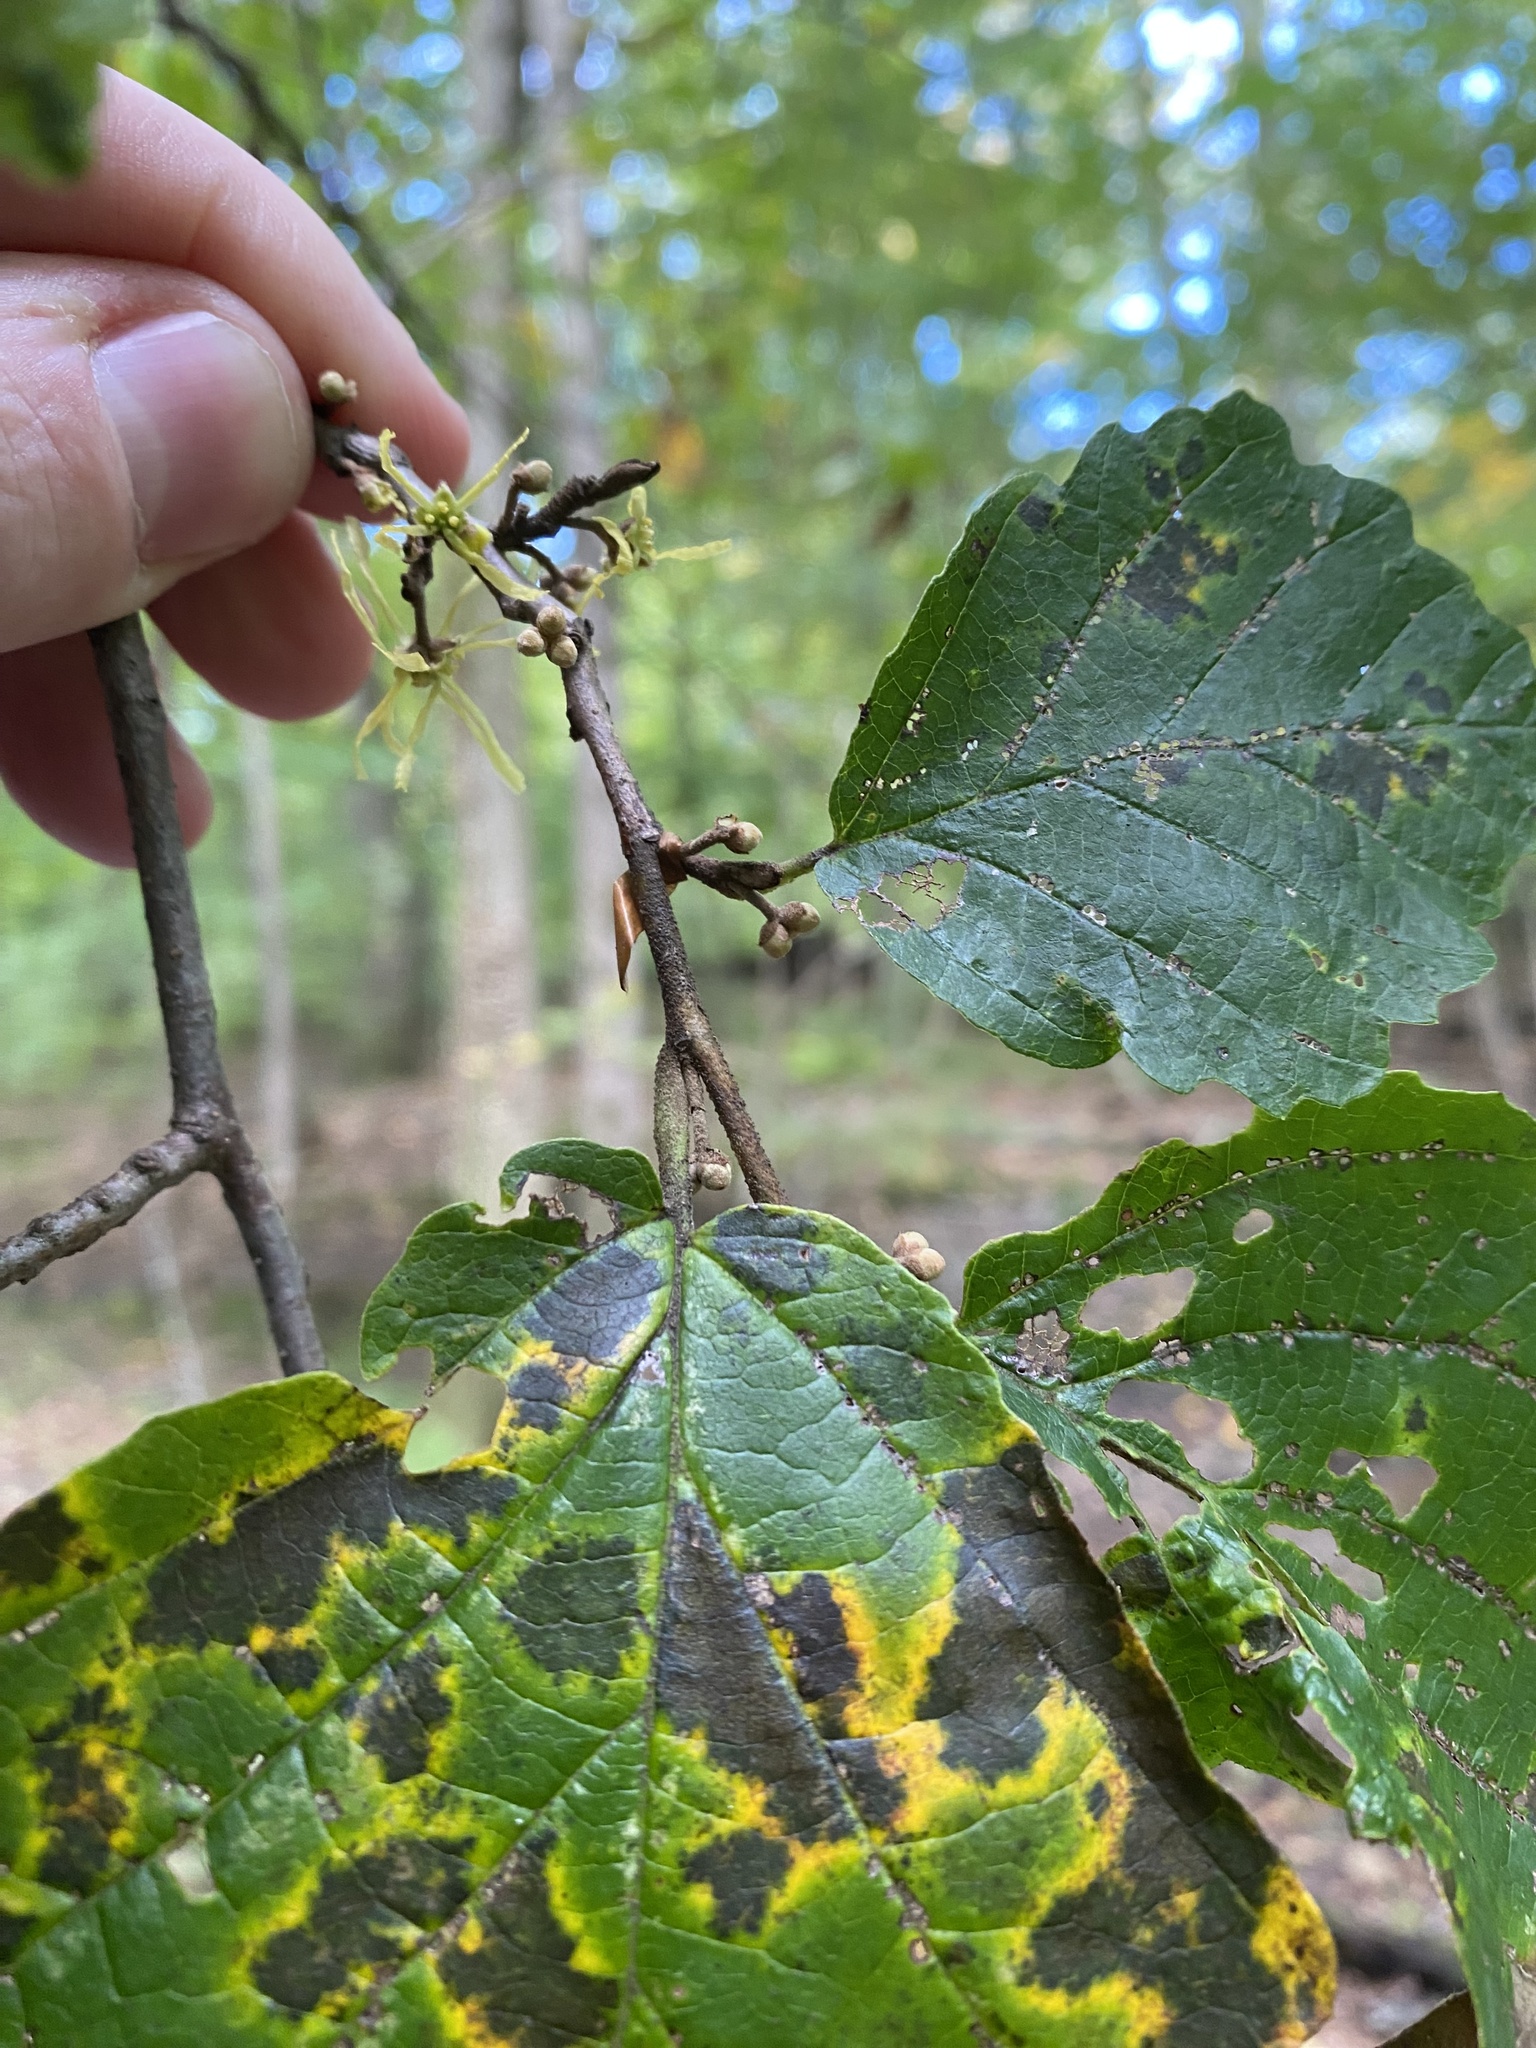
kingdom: Plantae
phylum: Tracheophyta
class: Magnoliopsida
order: Saxifragales
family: Hamamelidaceae
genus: Hamamelis
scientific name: Hamamelis virginiana
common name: Witch-hazel
